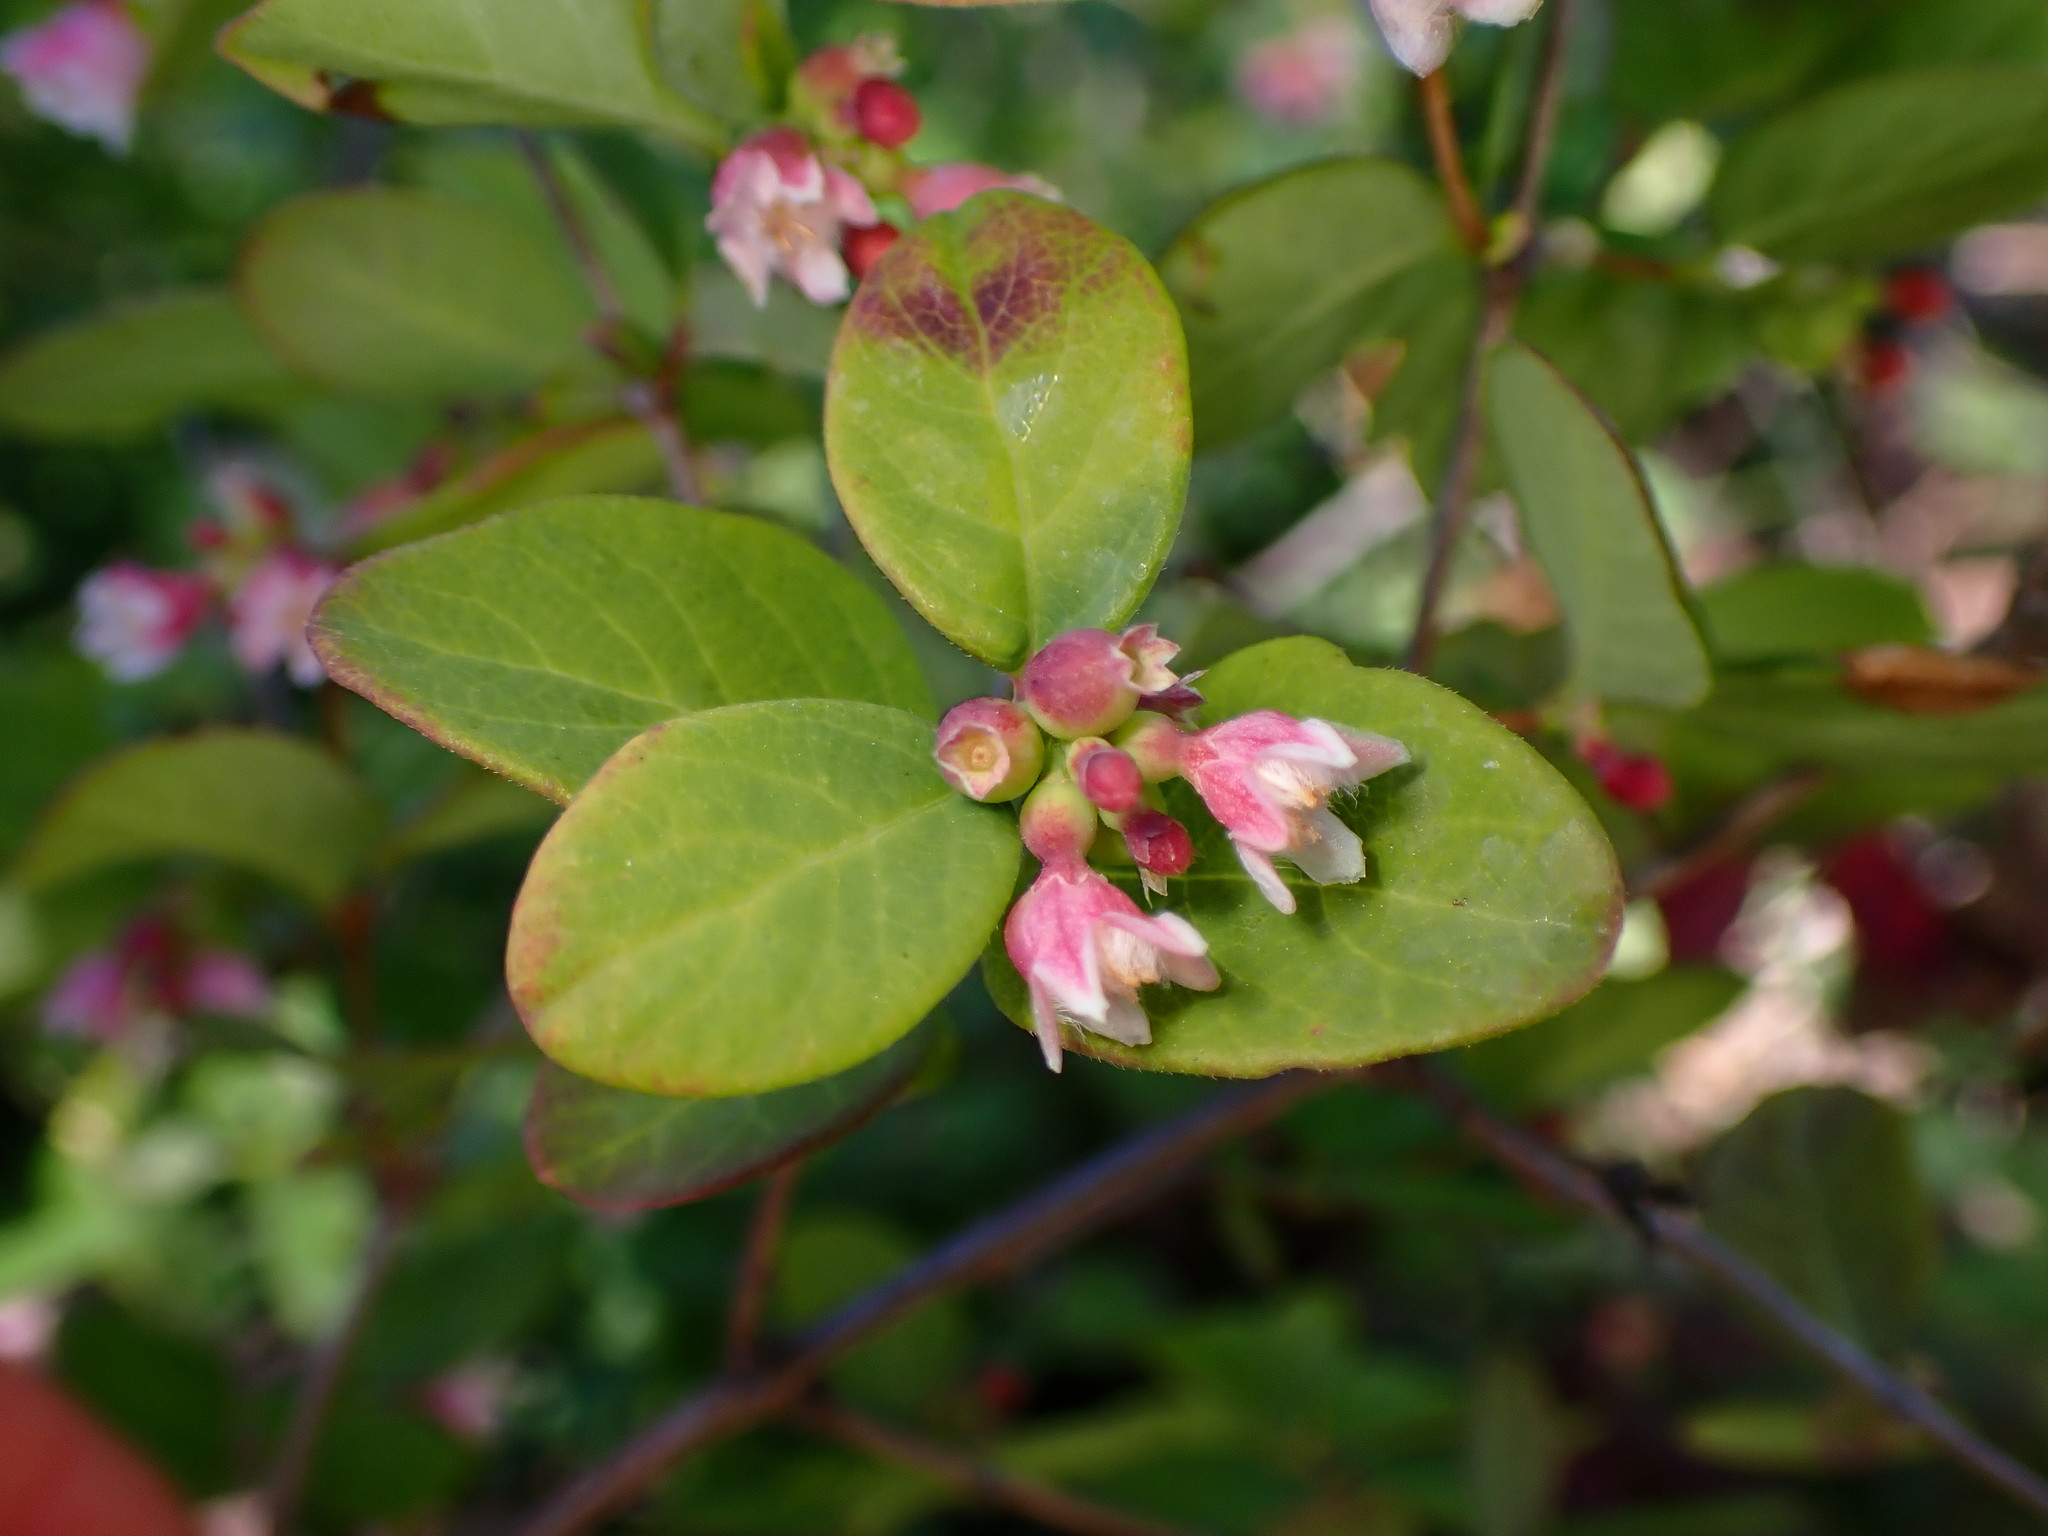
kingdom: Plantae
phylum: Tracheophyta
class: Magnoliopsida
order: Dipsacales
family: Caprifoliaceae
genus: Symphoricarpos
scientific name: Symphoricarpos albus
